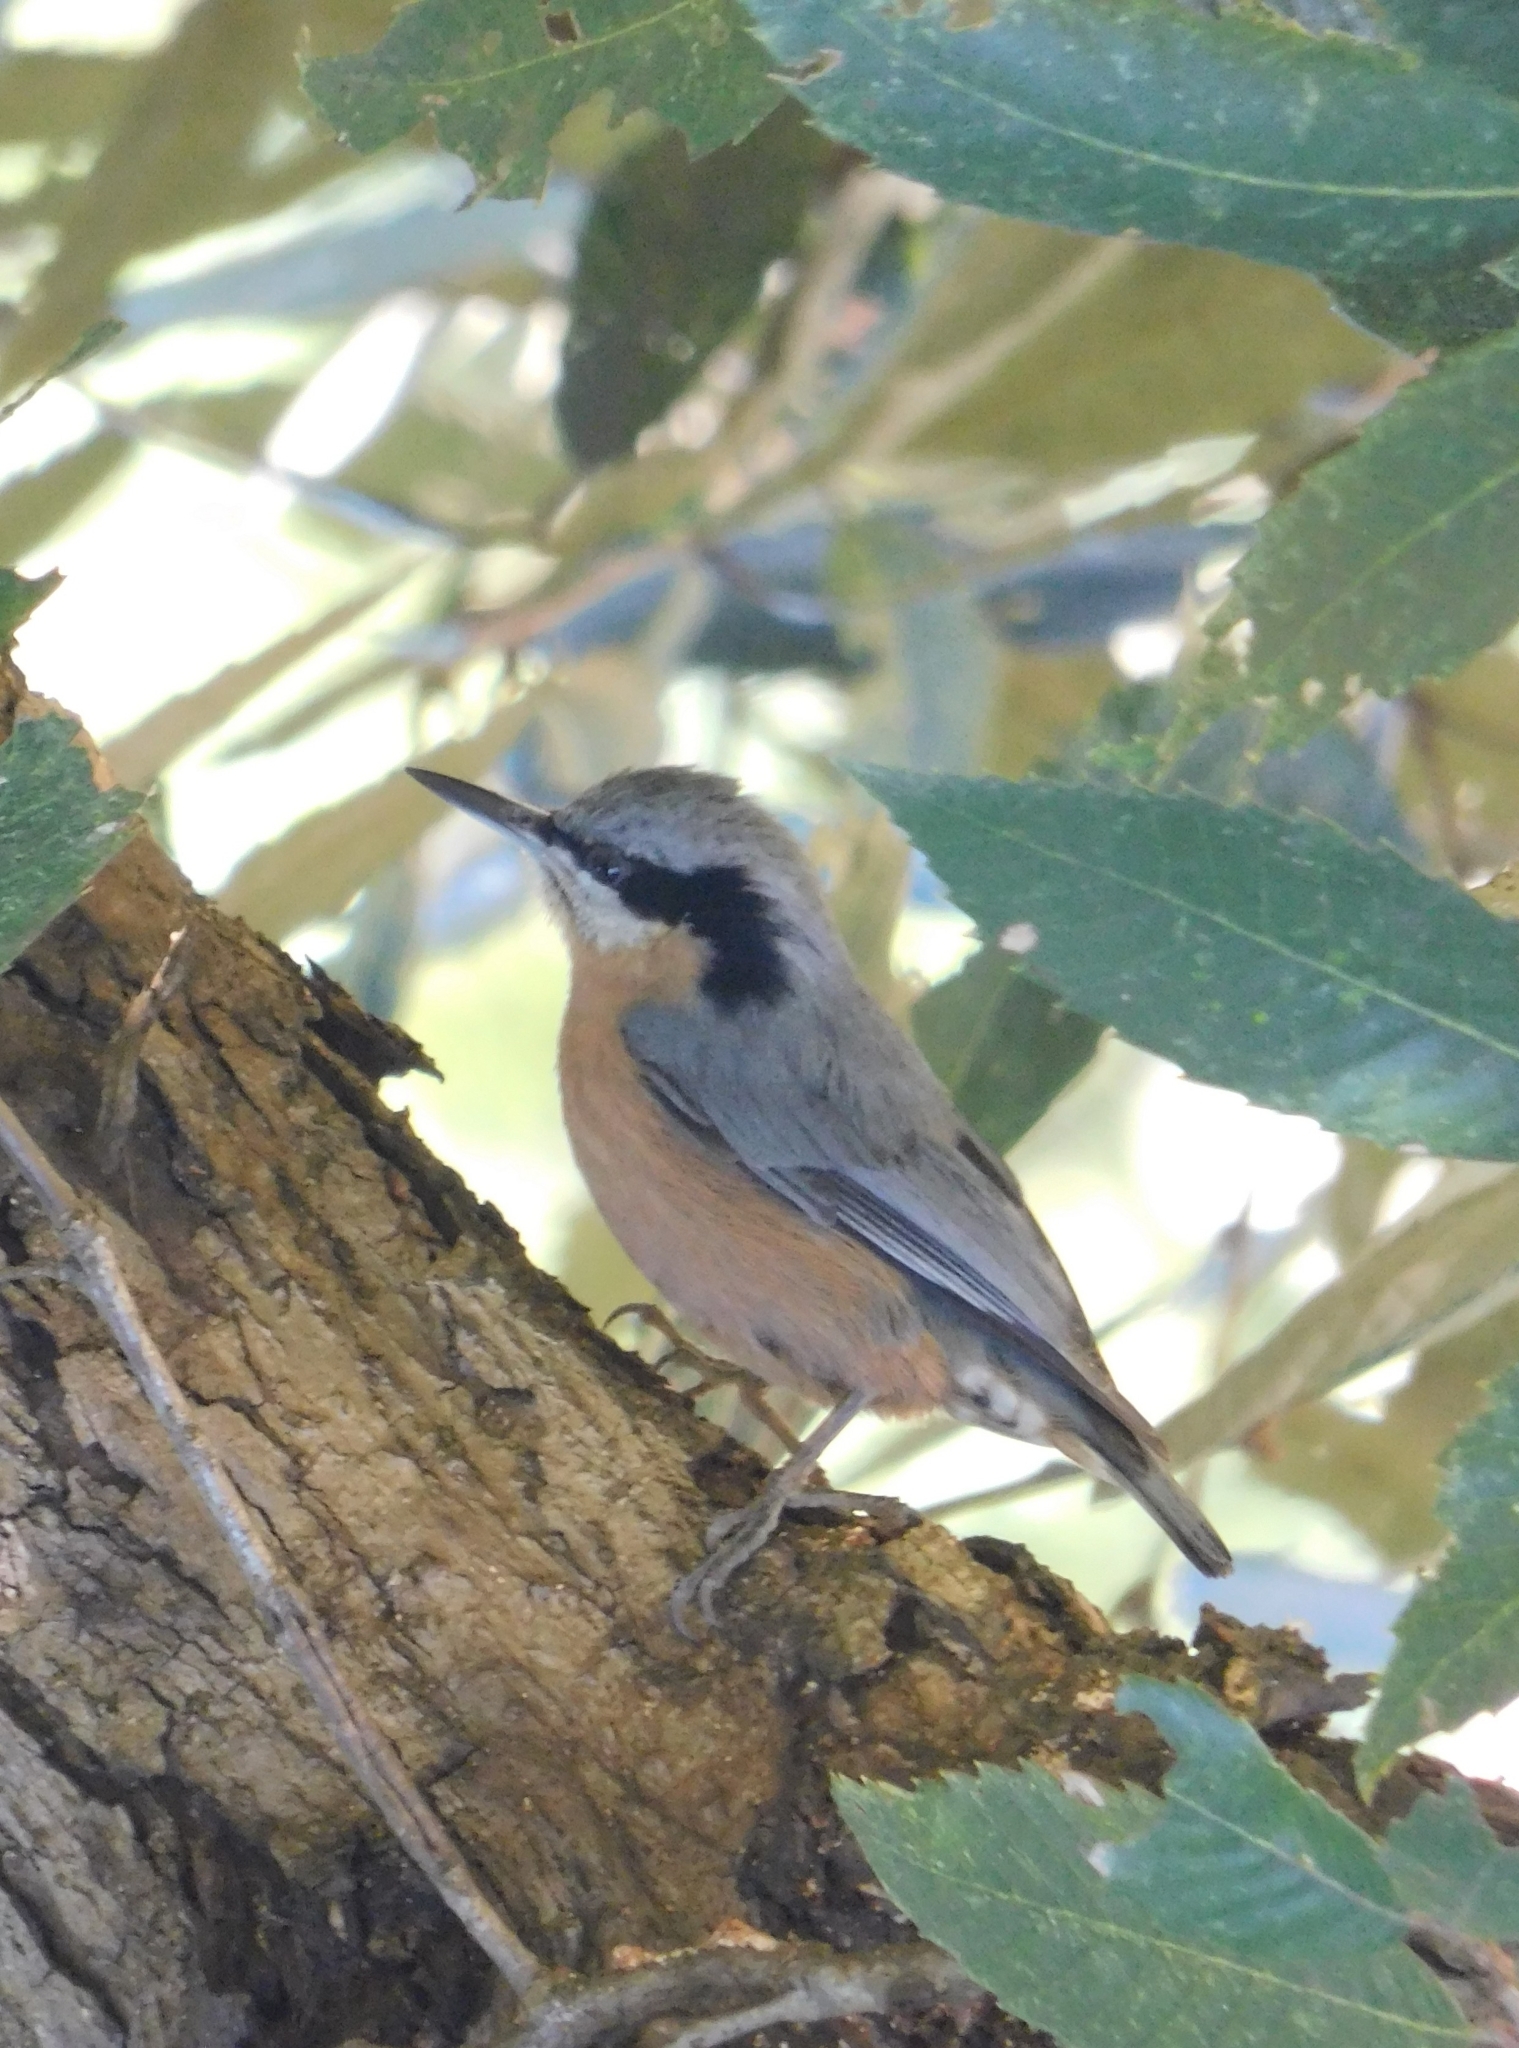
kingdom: Animalia
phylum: Chordata
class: Aves
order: Passeriformes
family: Sittidae
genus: Sitta
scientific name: Sitta cinnamoventris
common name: Chestnut-bellied nuthatch
